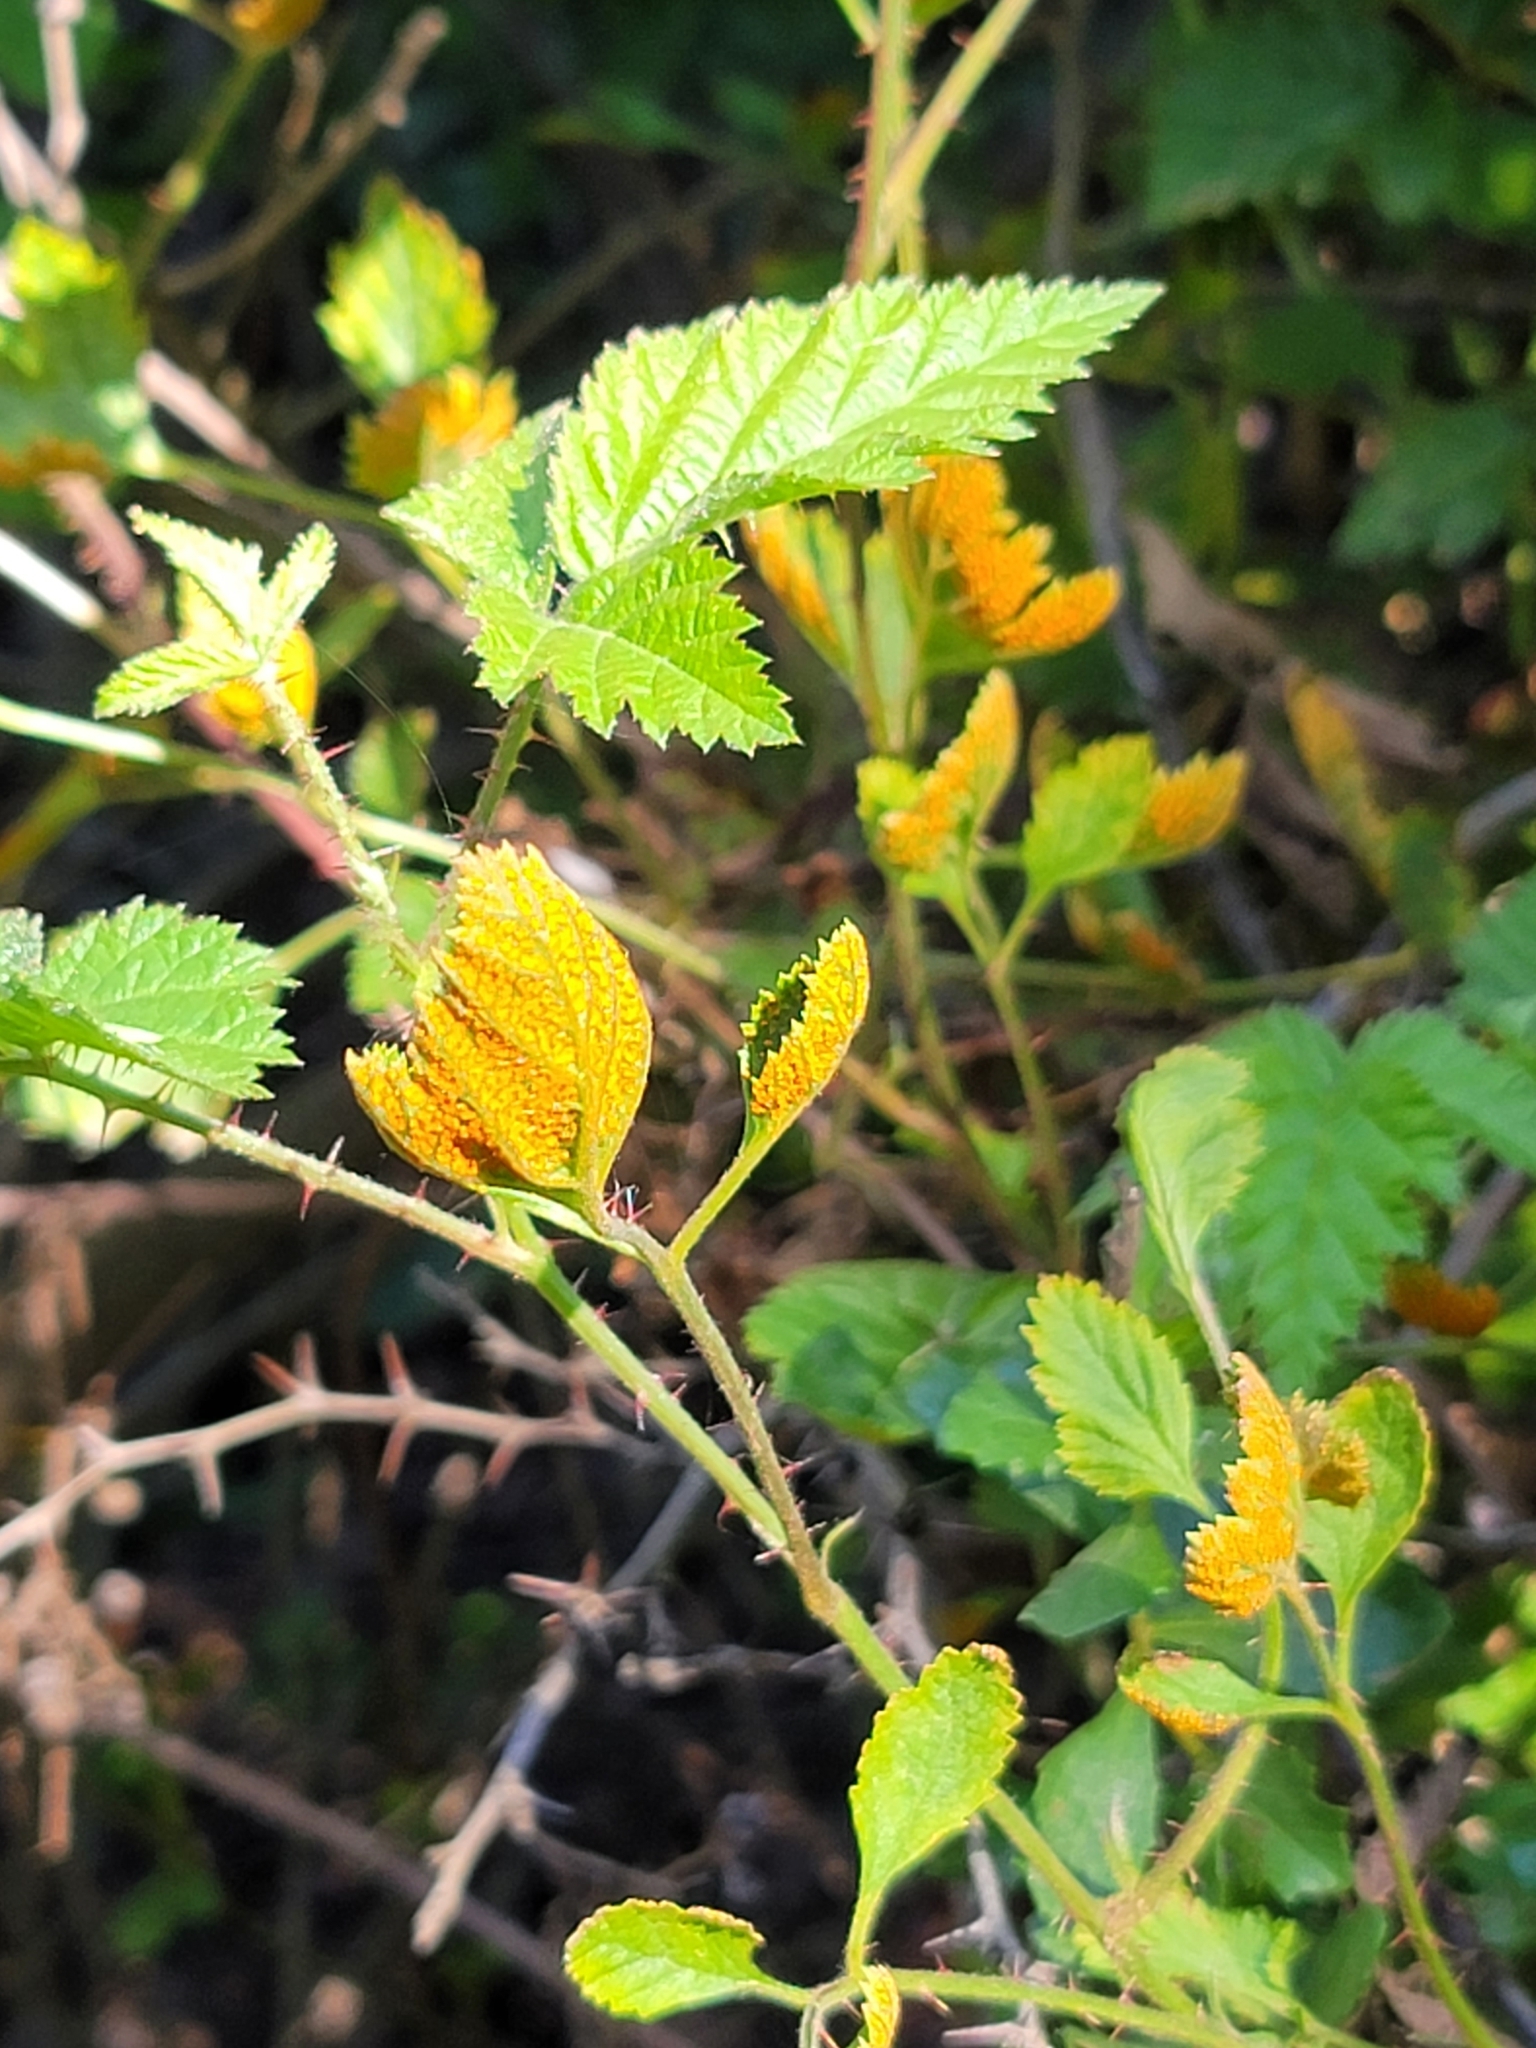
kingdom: Fungi
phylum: Basidiomycota
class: Pucciniomycetes
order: Pucciniales
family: Phragmidiaceae
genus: Arthuriomyces
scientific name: Arthuriomyces peckianus
